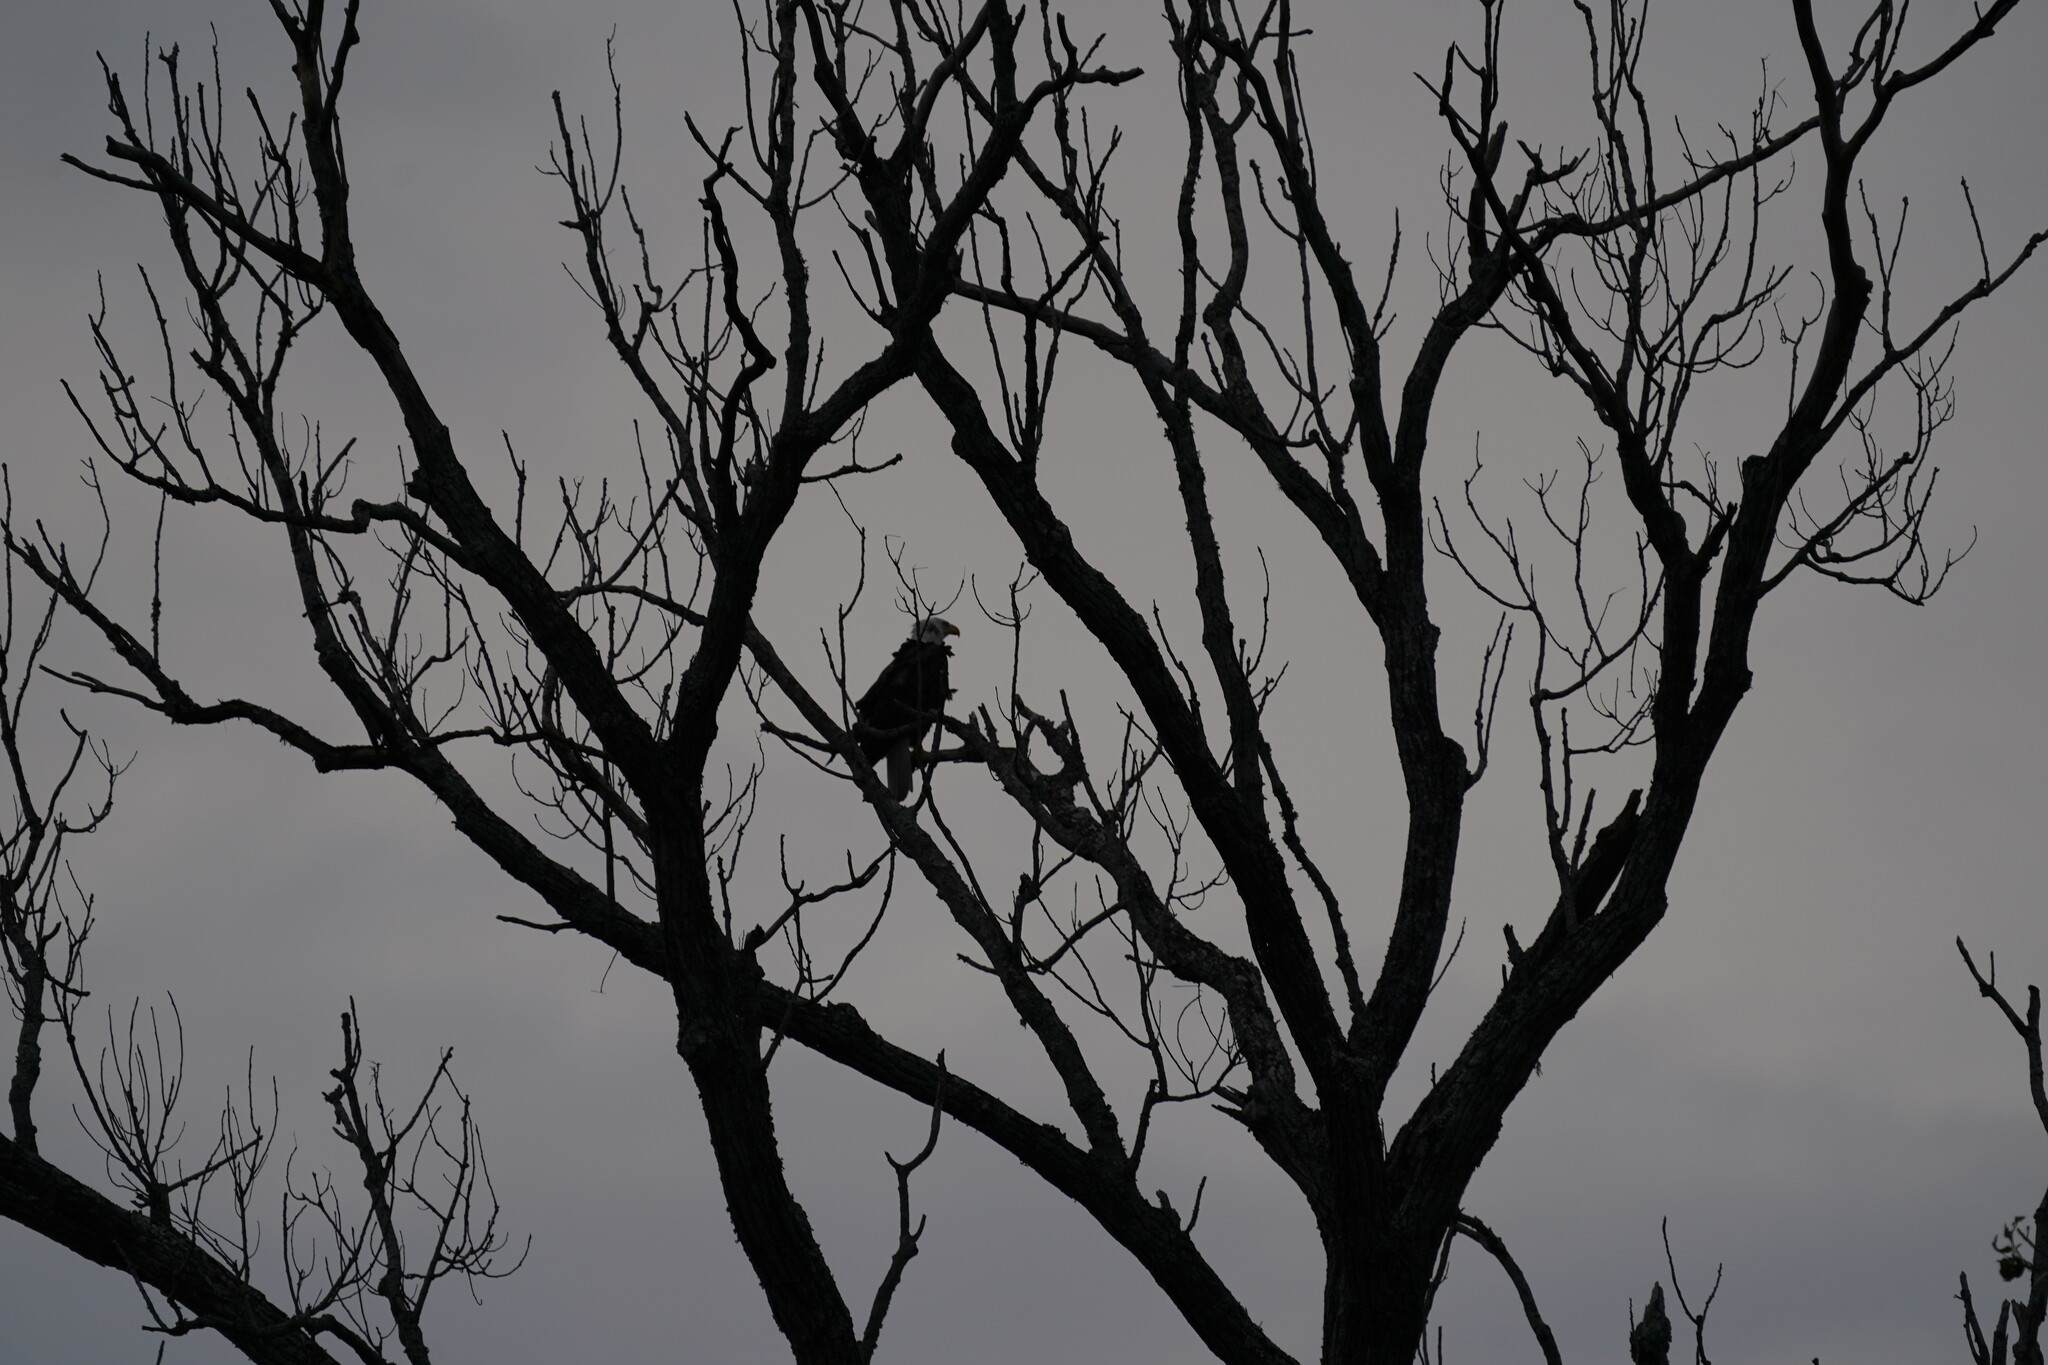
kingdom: Animalia
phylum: Chordata
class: Aves
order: Accipitriformes
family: Accipitridae
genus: Haliaeetus
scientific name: Haliaeetus leucocephalus
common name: Bald eagle
